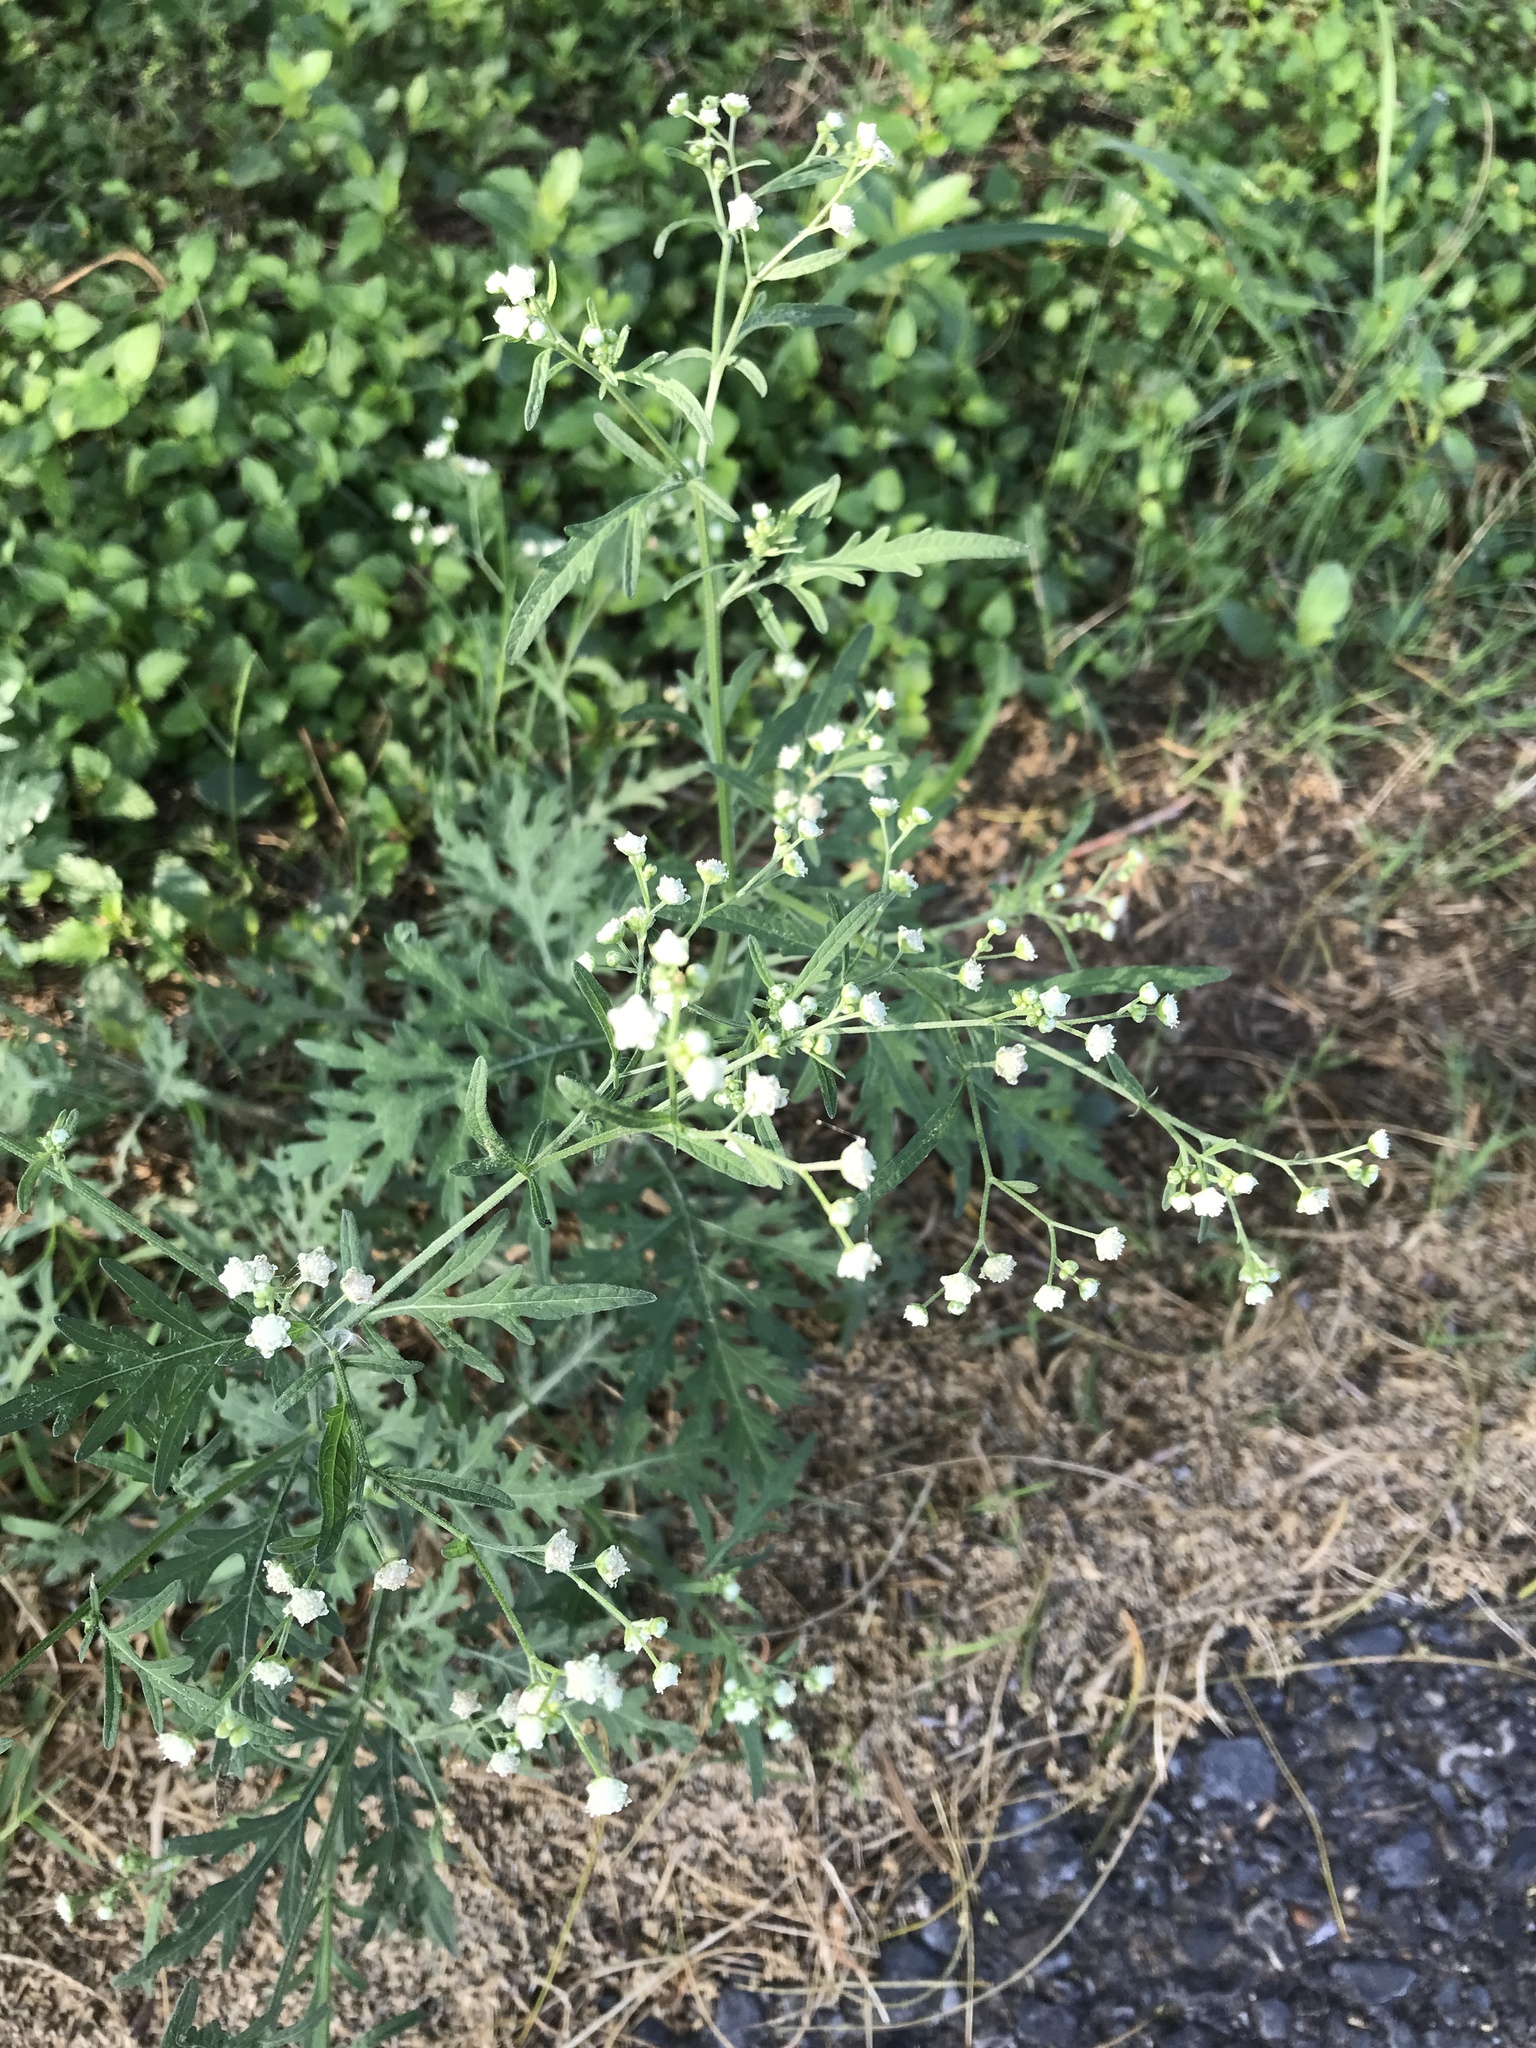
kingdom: Plantae
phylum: Tracheophyta
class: Magnoliopsida
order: Asterales
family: Asteraceae
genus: Parthenium
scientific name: Parthenium hysterophorus
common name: Santa maria feverfew
